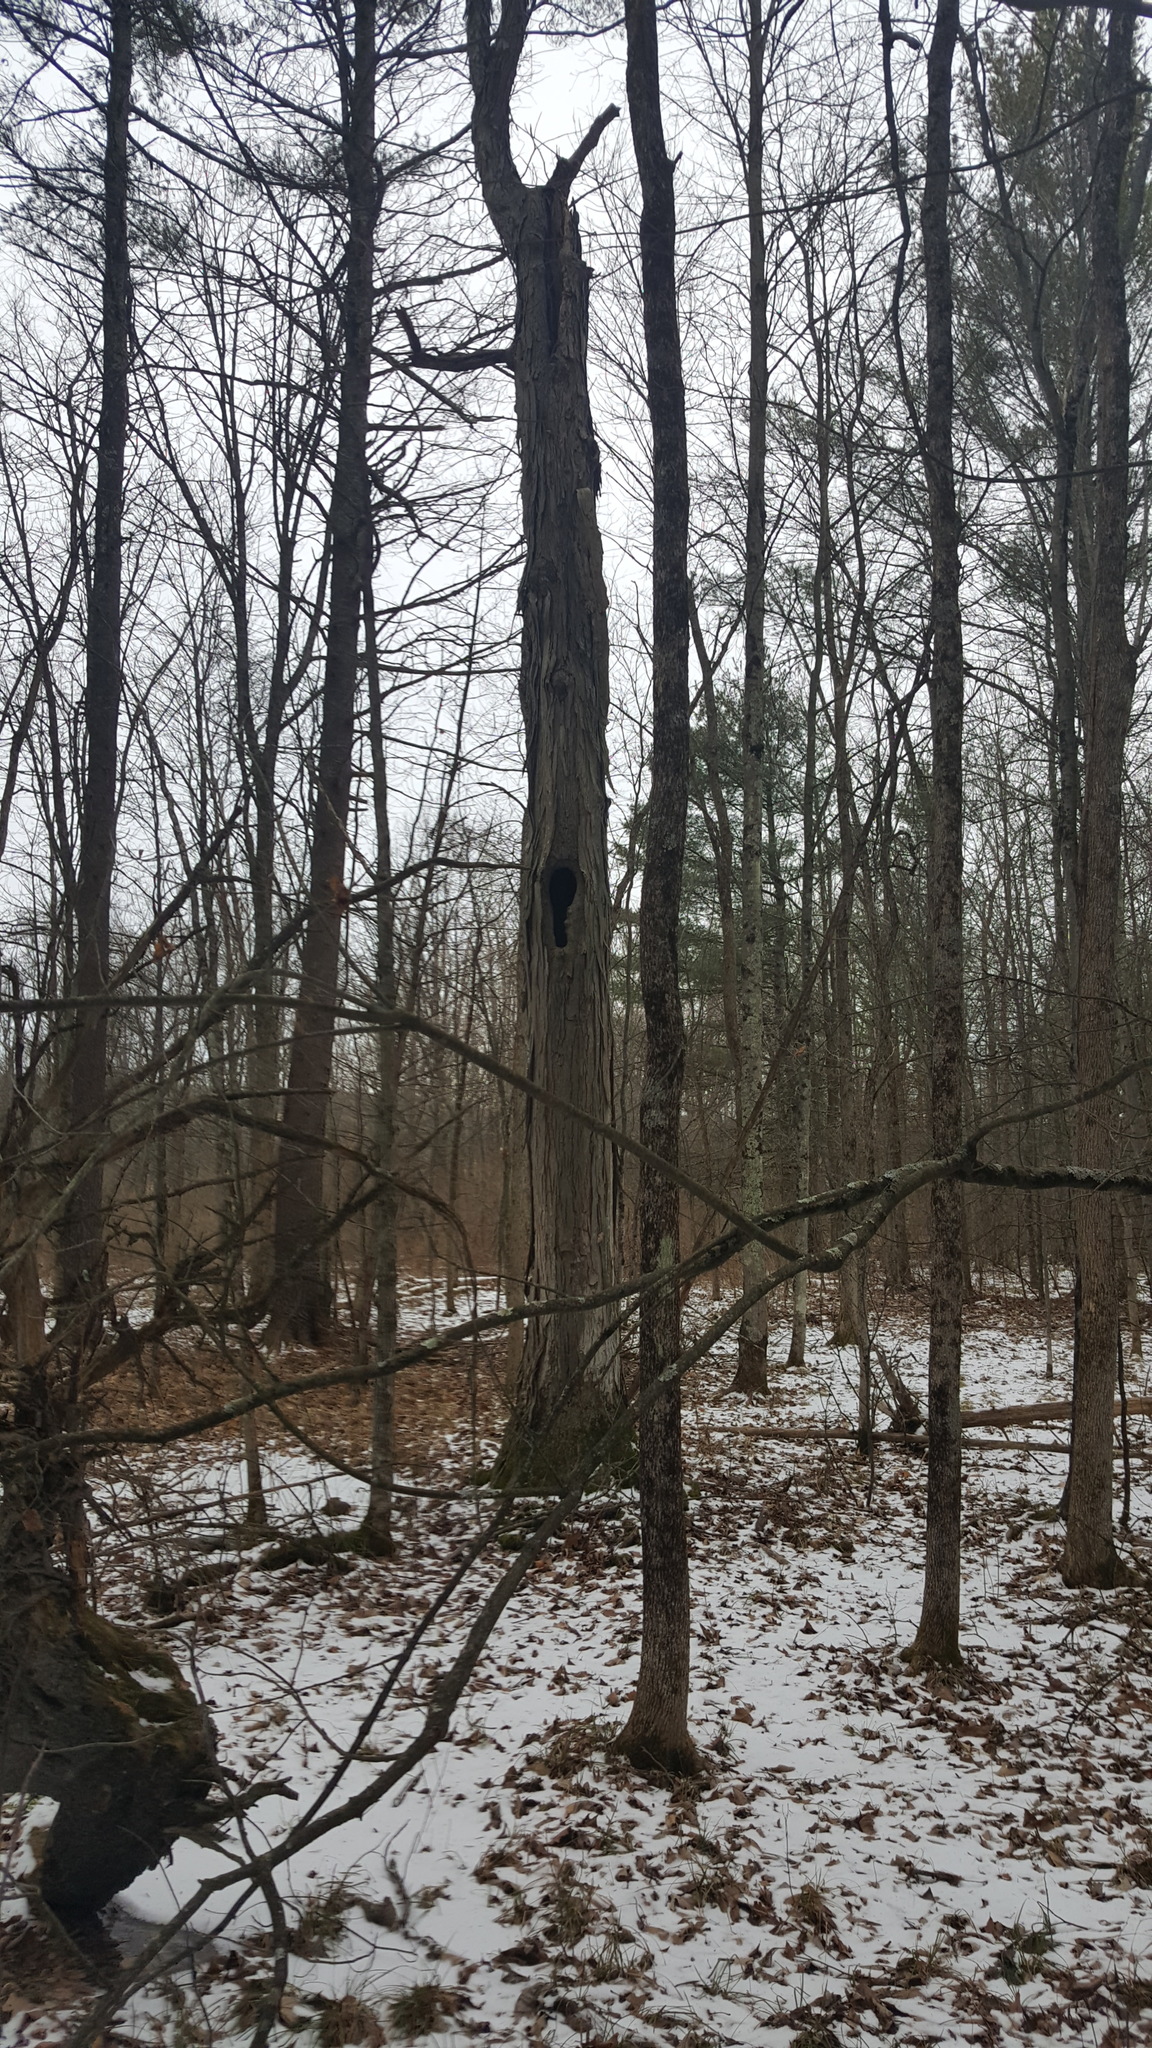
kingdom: Plantae
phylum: Tracheophyta
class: Magnoliopsida
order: Fagales
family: Juglandaceae
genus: Carya
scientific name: Carya ovata
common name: Shagbark hickory
